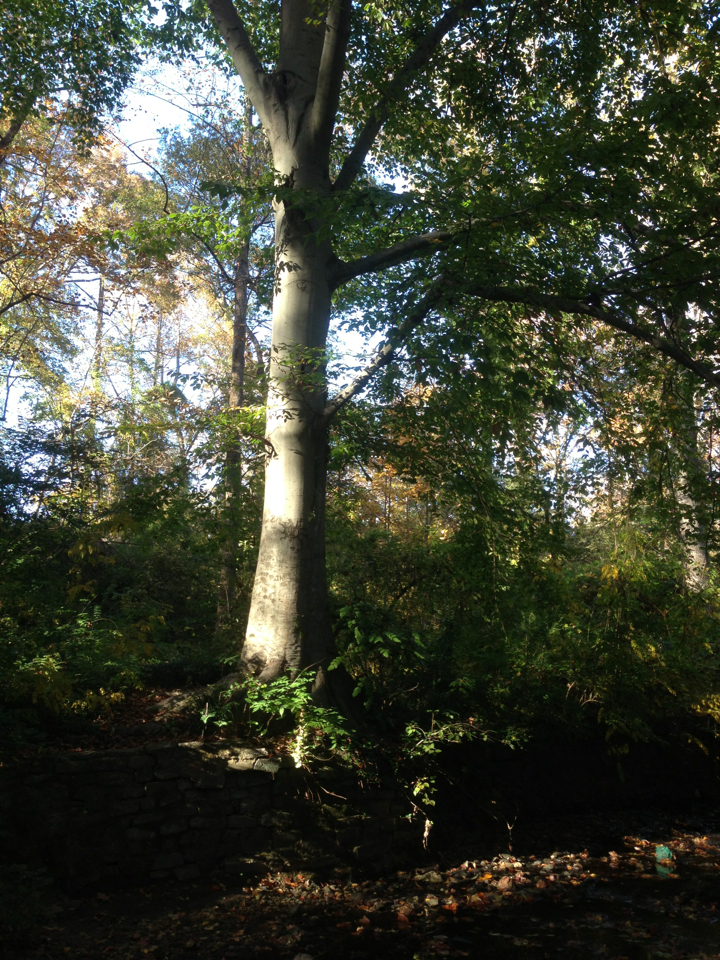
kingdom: Plantae
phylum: Tracheophyta
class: Magnoliopsida
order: Fagales
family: Fagaceae
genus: Fagus
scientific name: Fagus grandifolia
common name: American beech
